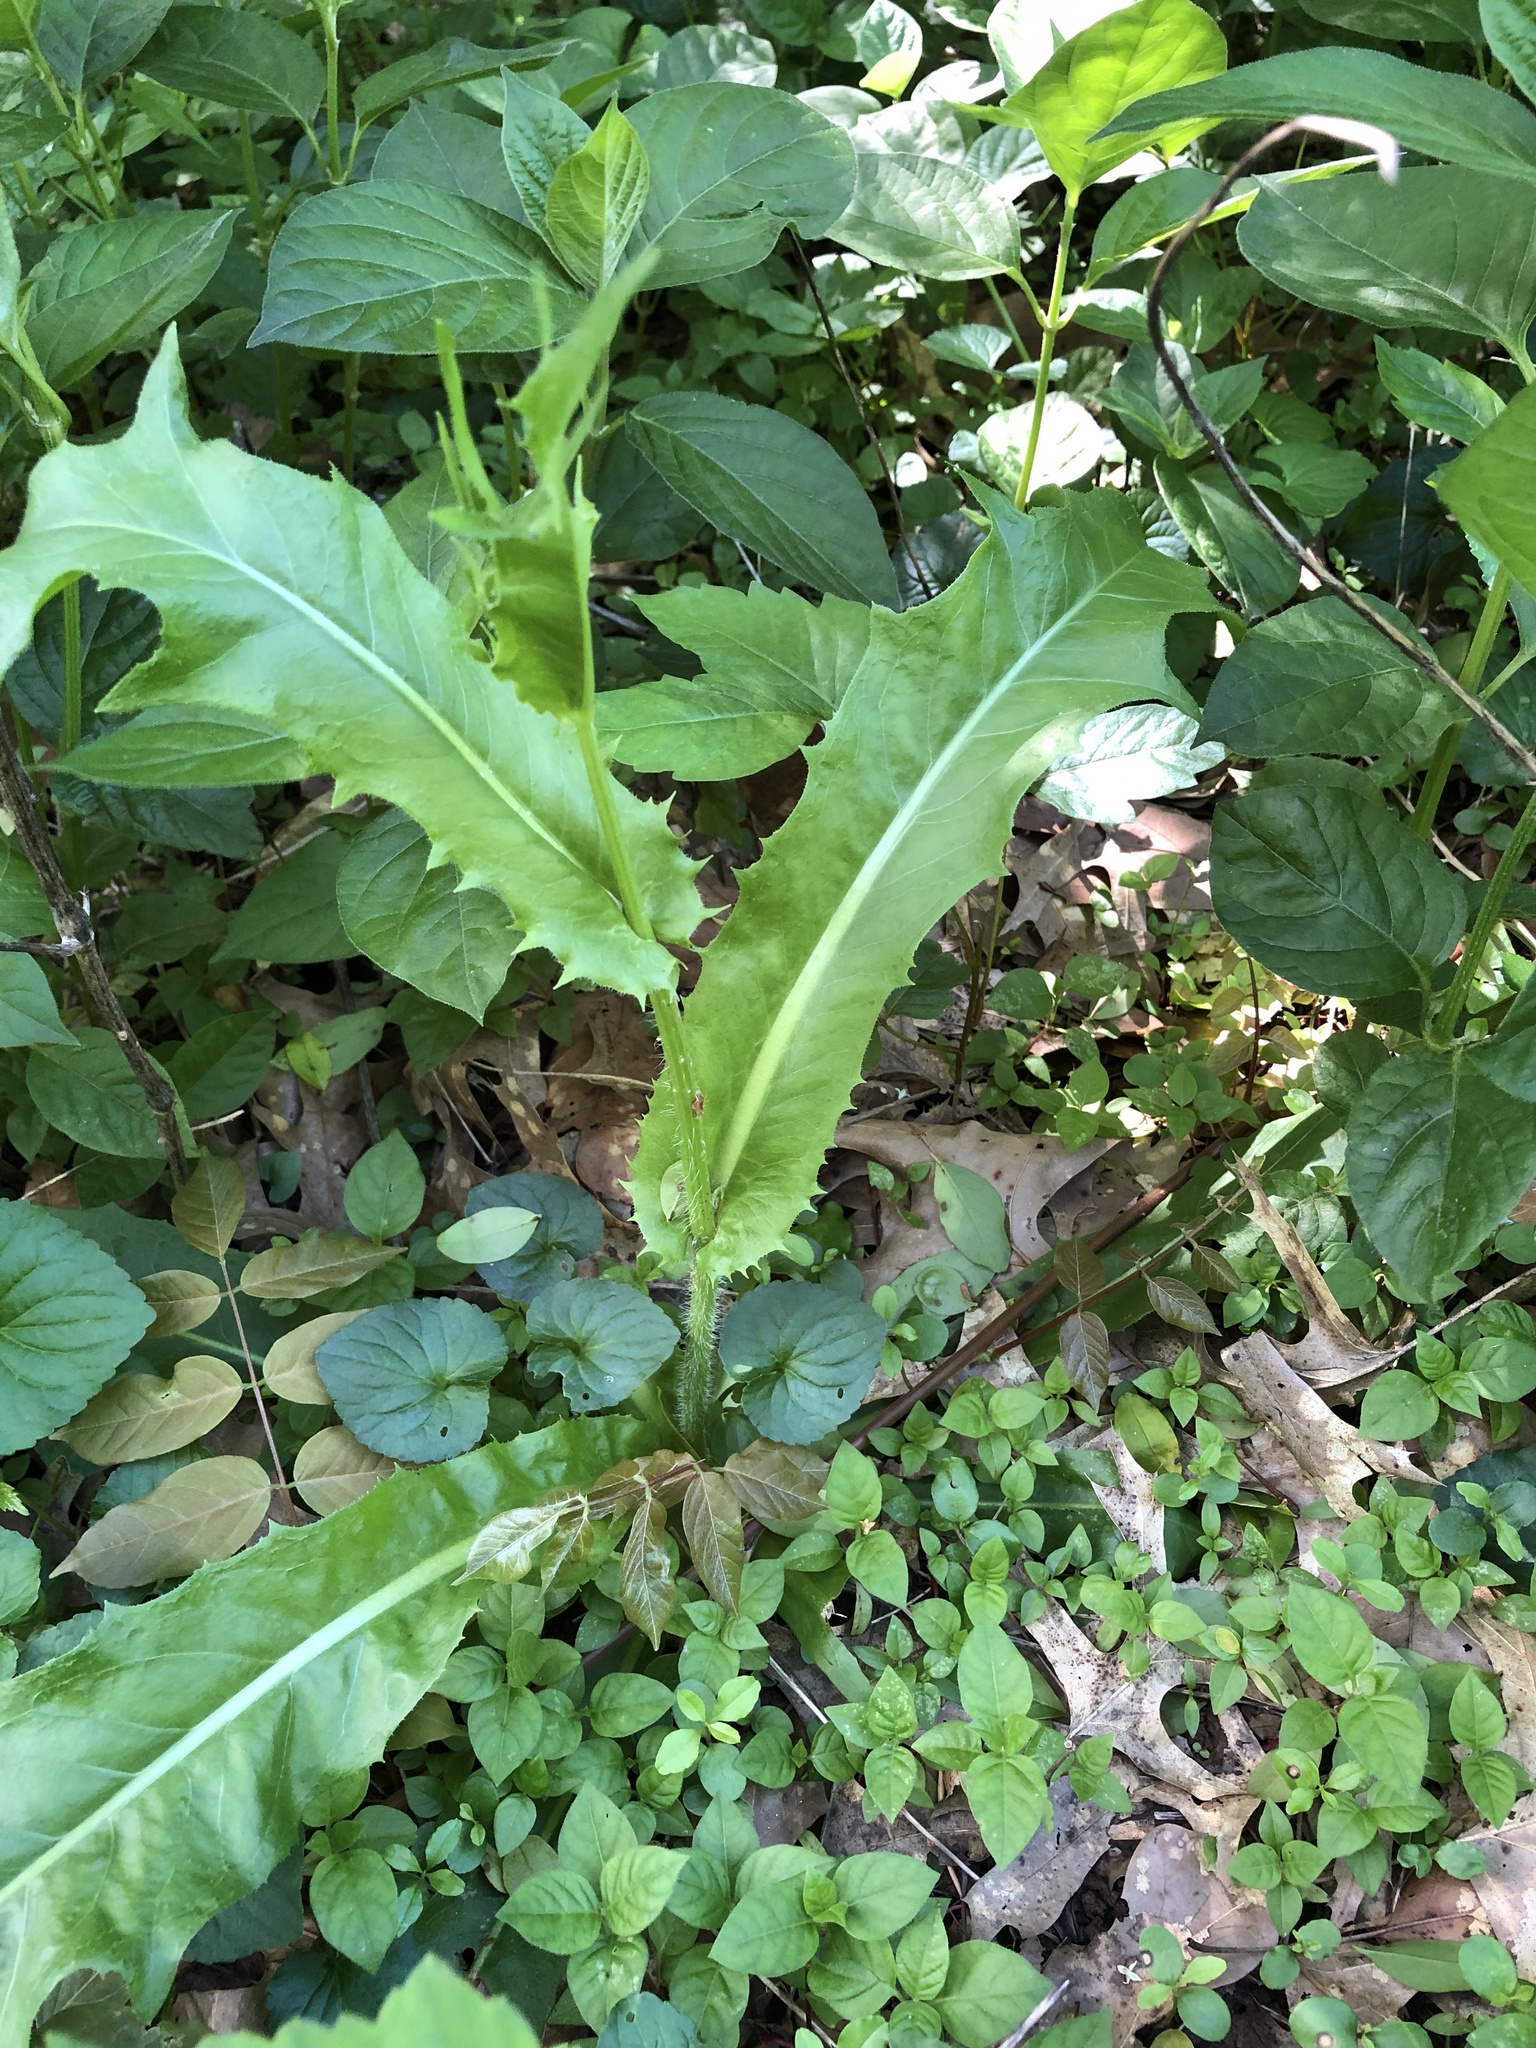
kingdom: Plantae
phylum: Tracheophyta
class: Magnoliopsida
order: Asterales
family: Asteraceae
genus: Hypochaeris
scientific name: Hypochaeris chillensis
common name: Brazilian cat's ear
